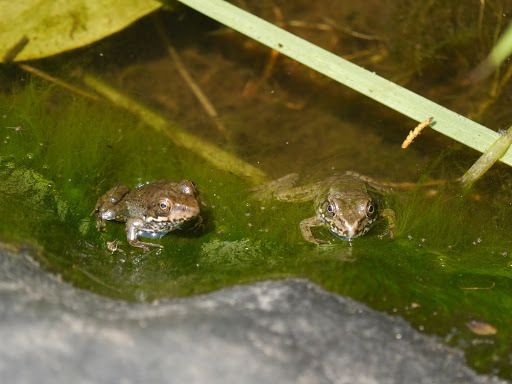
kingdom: Animalia
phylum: Chordata
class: Amphibia
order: Anura
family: Ranidae
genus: Lithobates
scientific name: Lithobates clamitans
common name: Green frog
